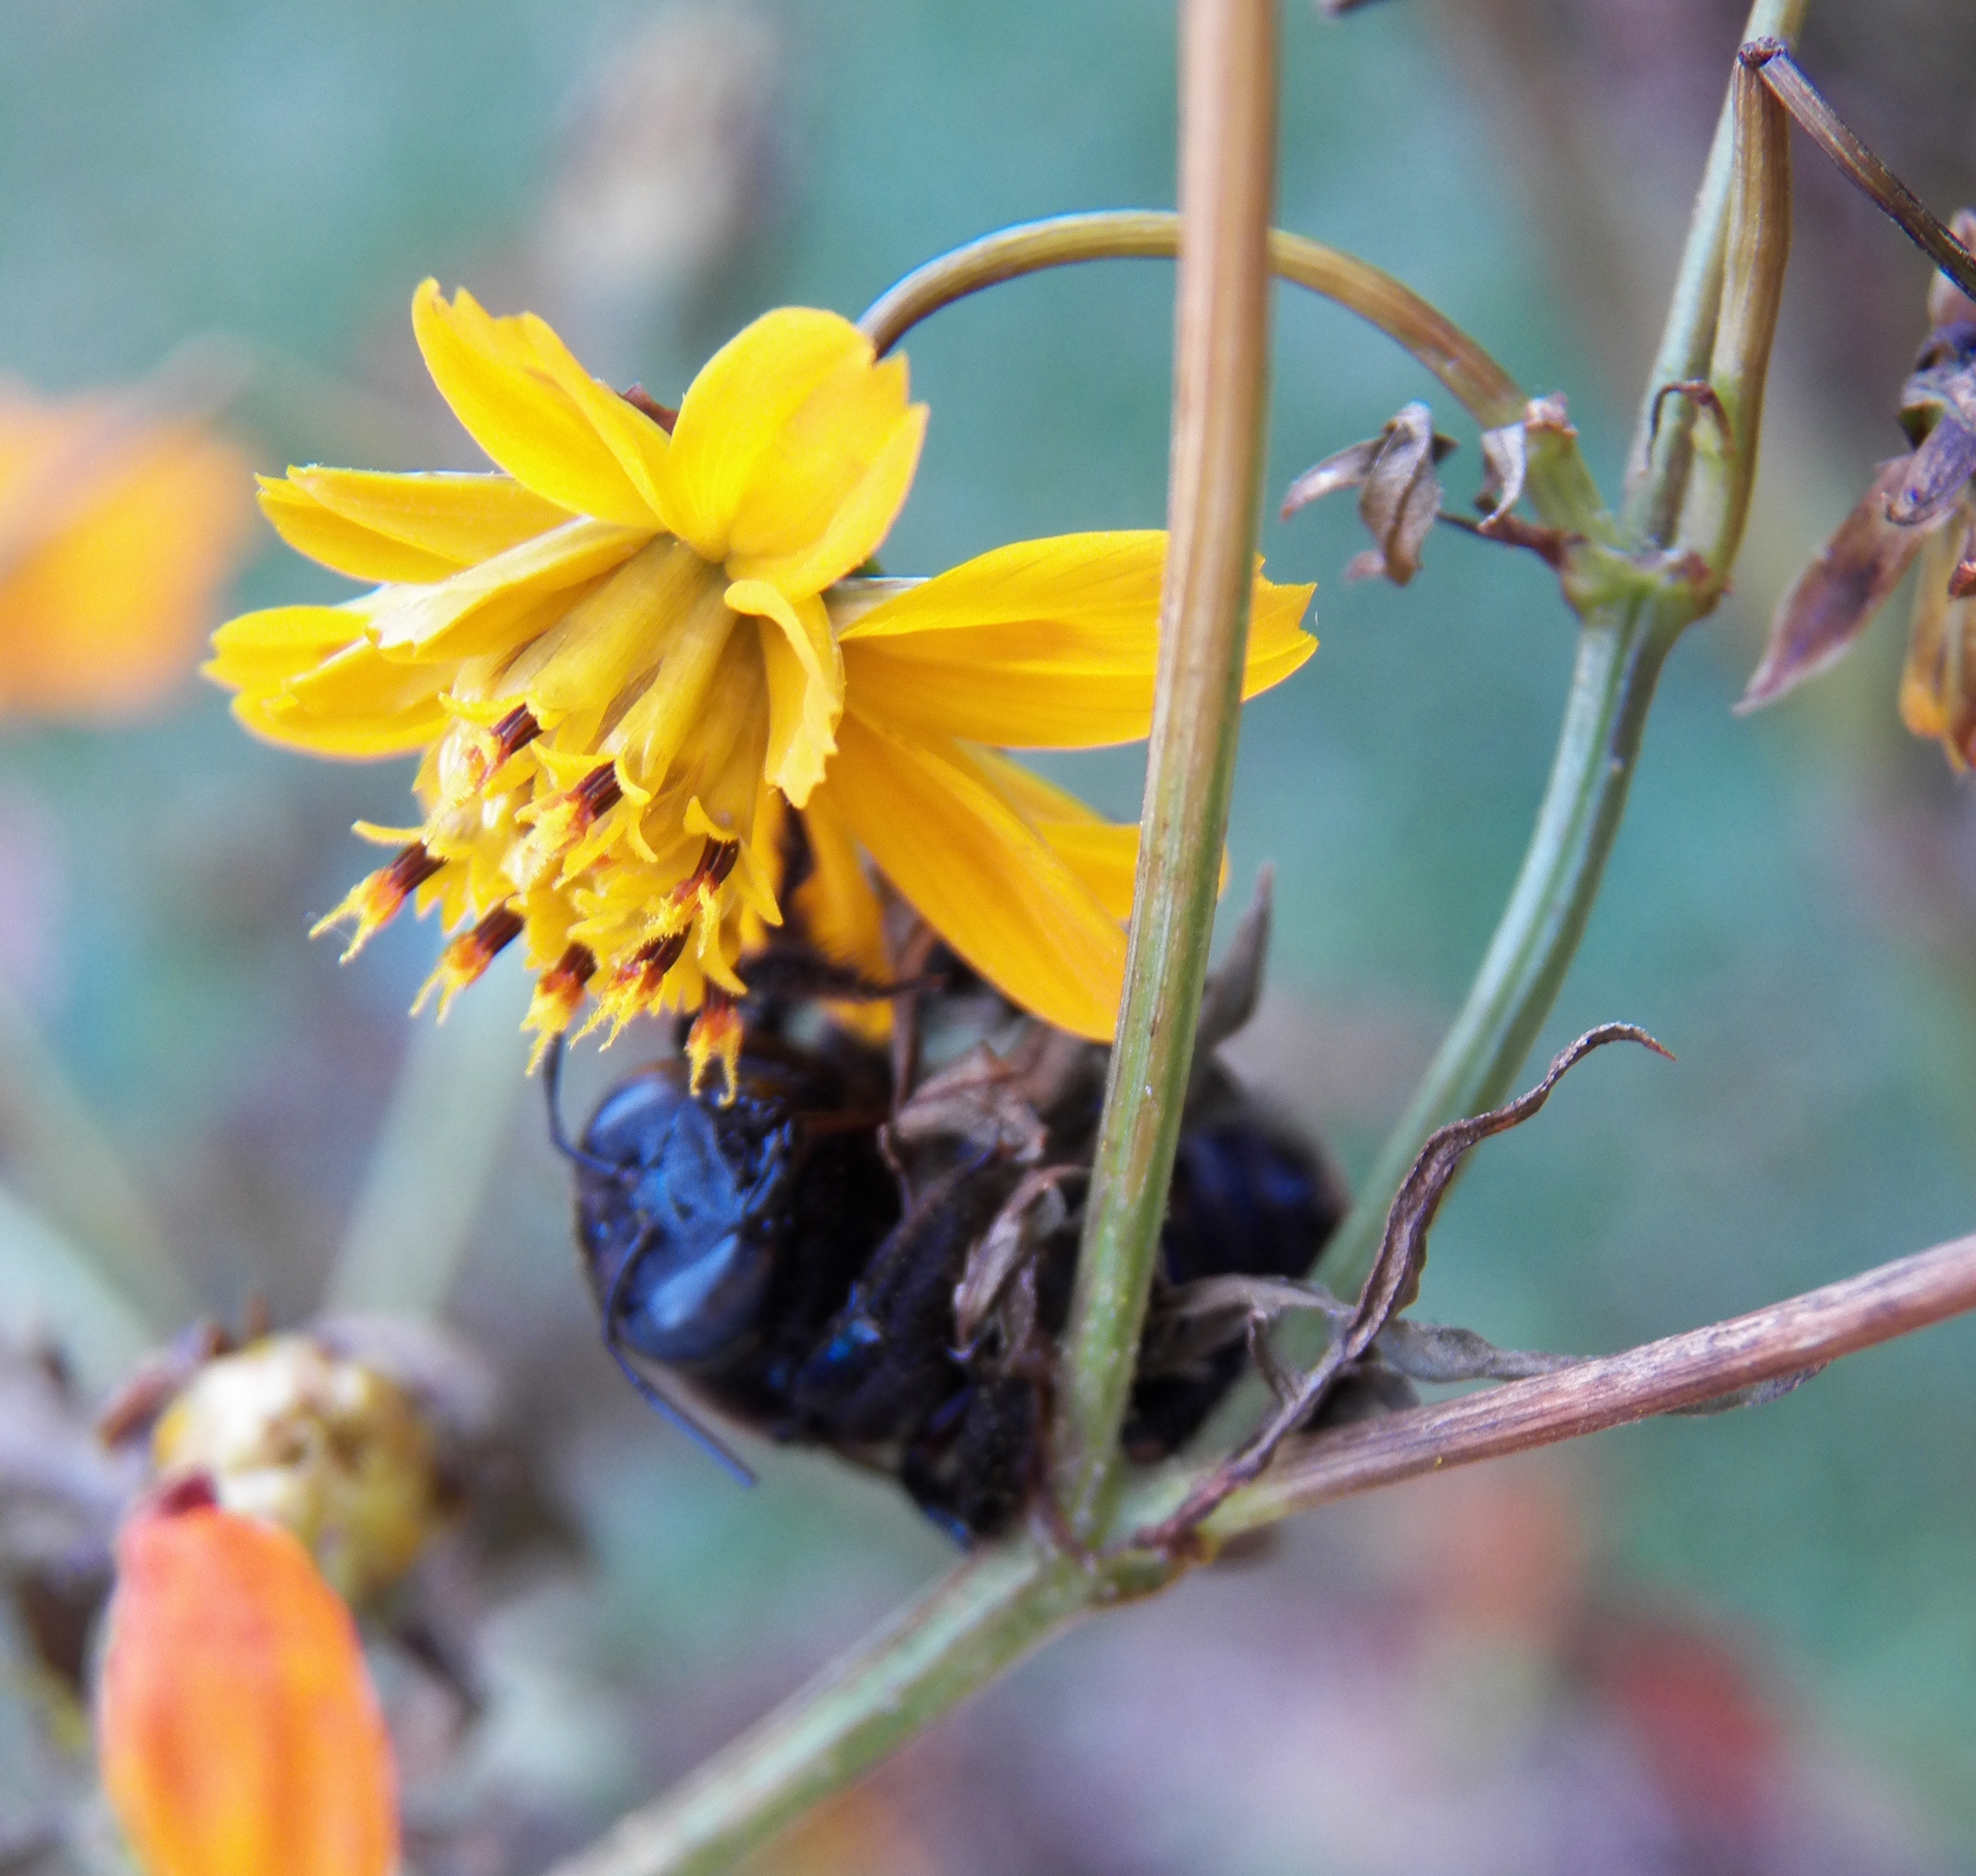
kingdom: Animalia
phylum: Arthropoda
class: Insecta
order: Hymenoptera
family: Apidae
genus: Xylocopa
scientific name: Xylocopa micans
